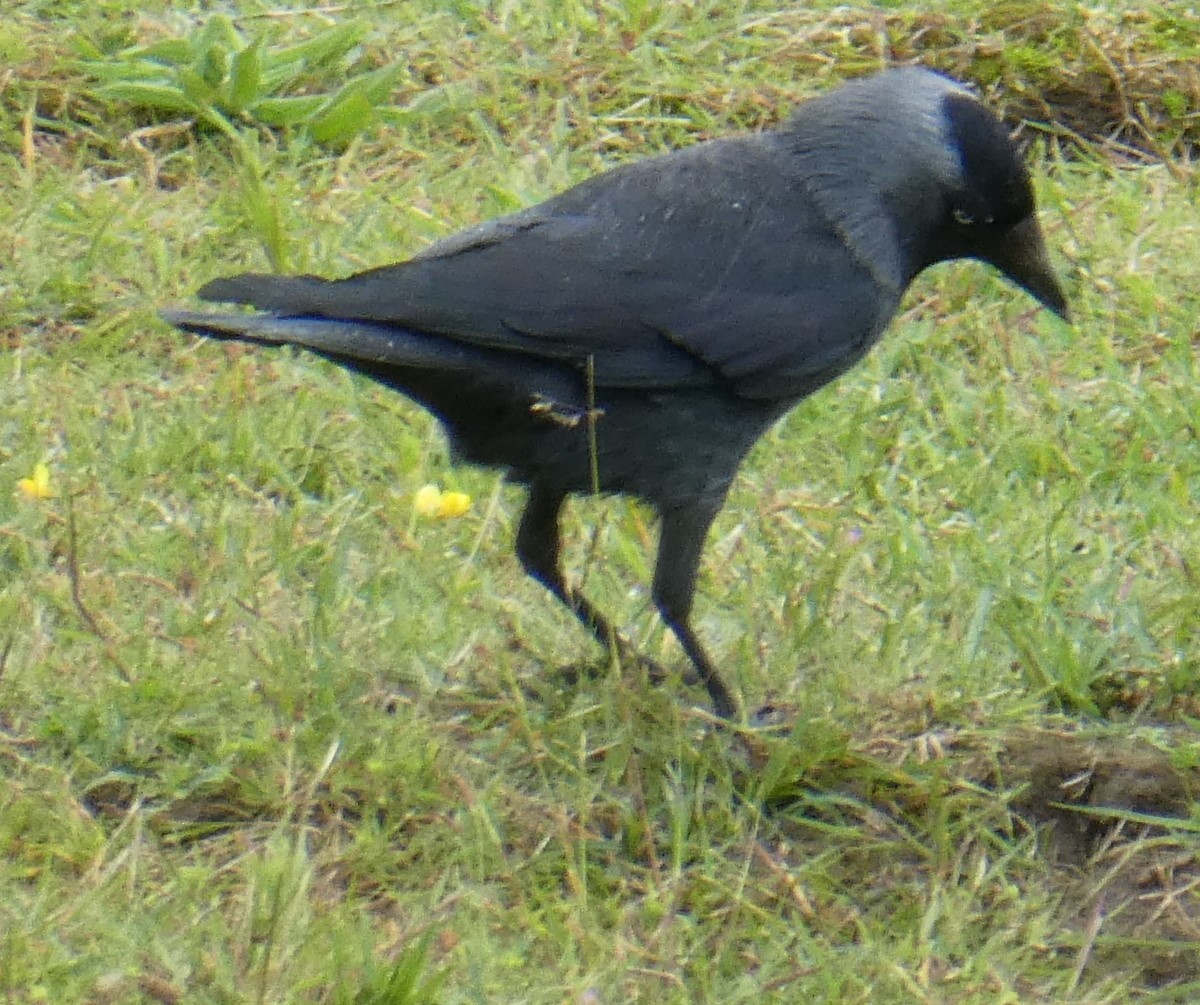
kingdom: Animalia
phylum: Chordata
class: Aves
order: Passeriformes
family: Corvidae
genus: Coloeus
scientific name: Coloeus monedula
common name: Western jackdaw
